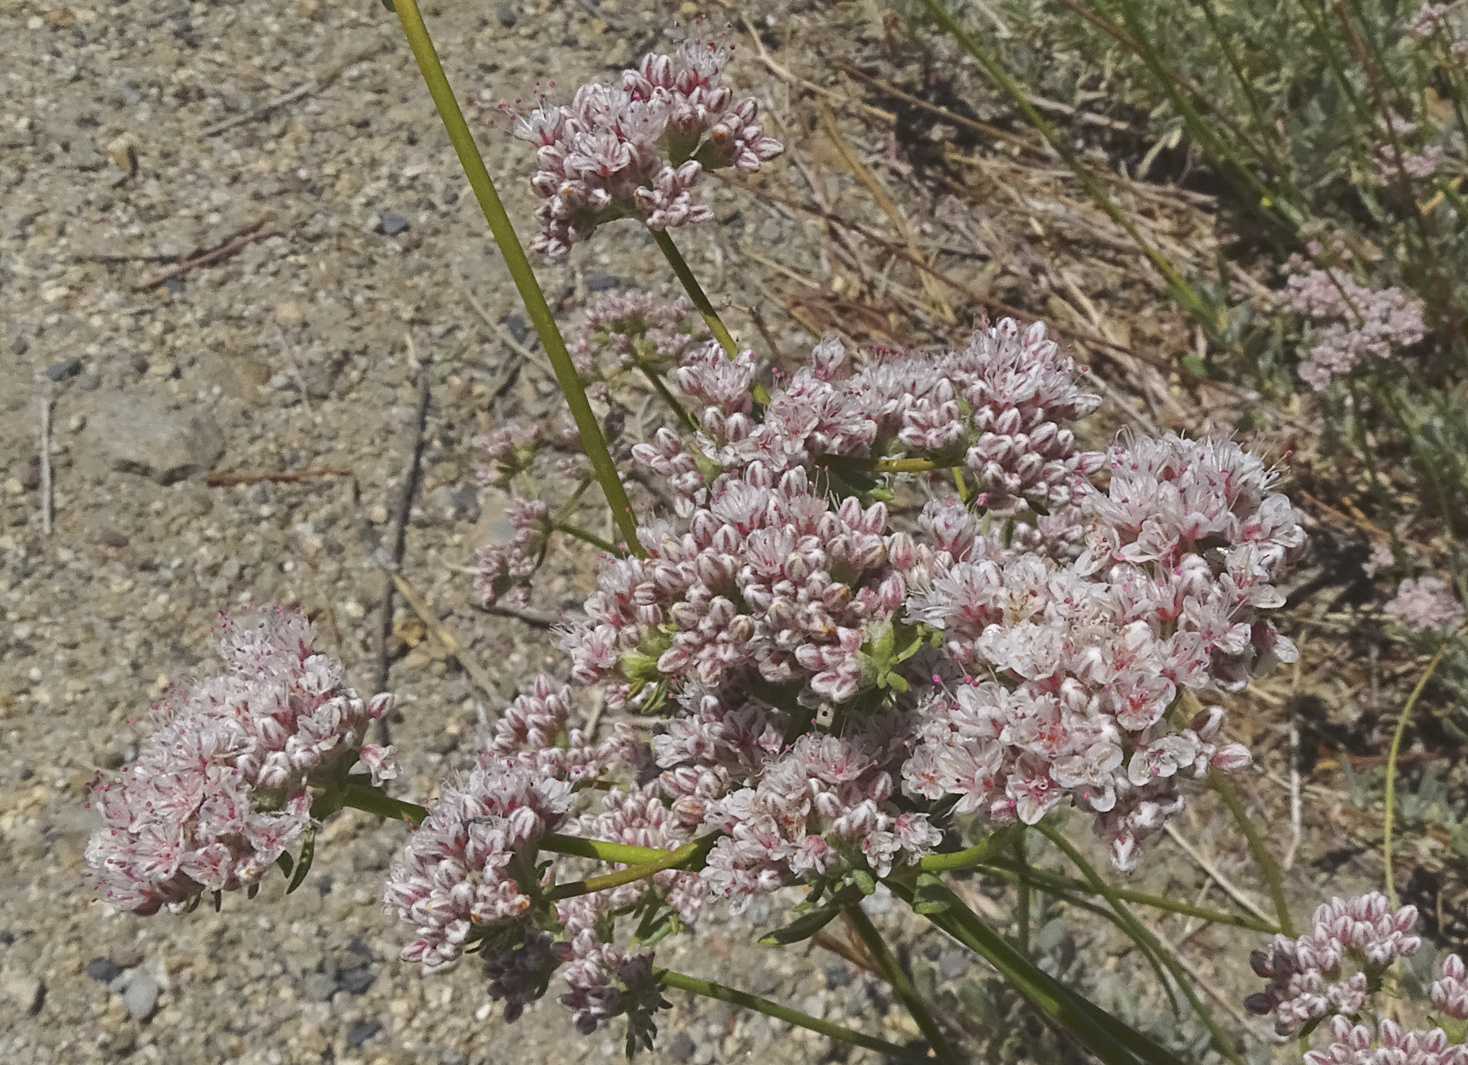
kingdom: Plantae
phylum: Tracheophyta
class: Magnoliopsida
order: Caryophyllales
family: Polygonaceae
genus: Eriogonum
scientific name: Eriogonum fasciculatum
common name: California wild buckwheat
